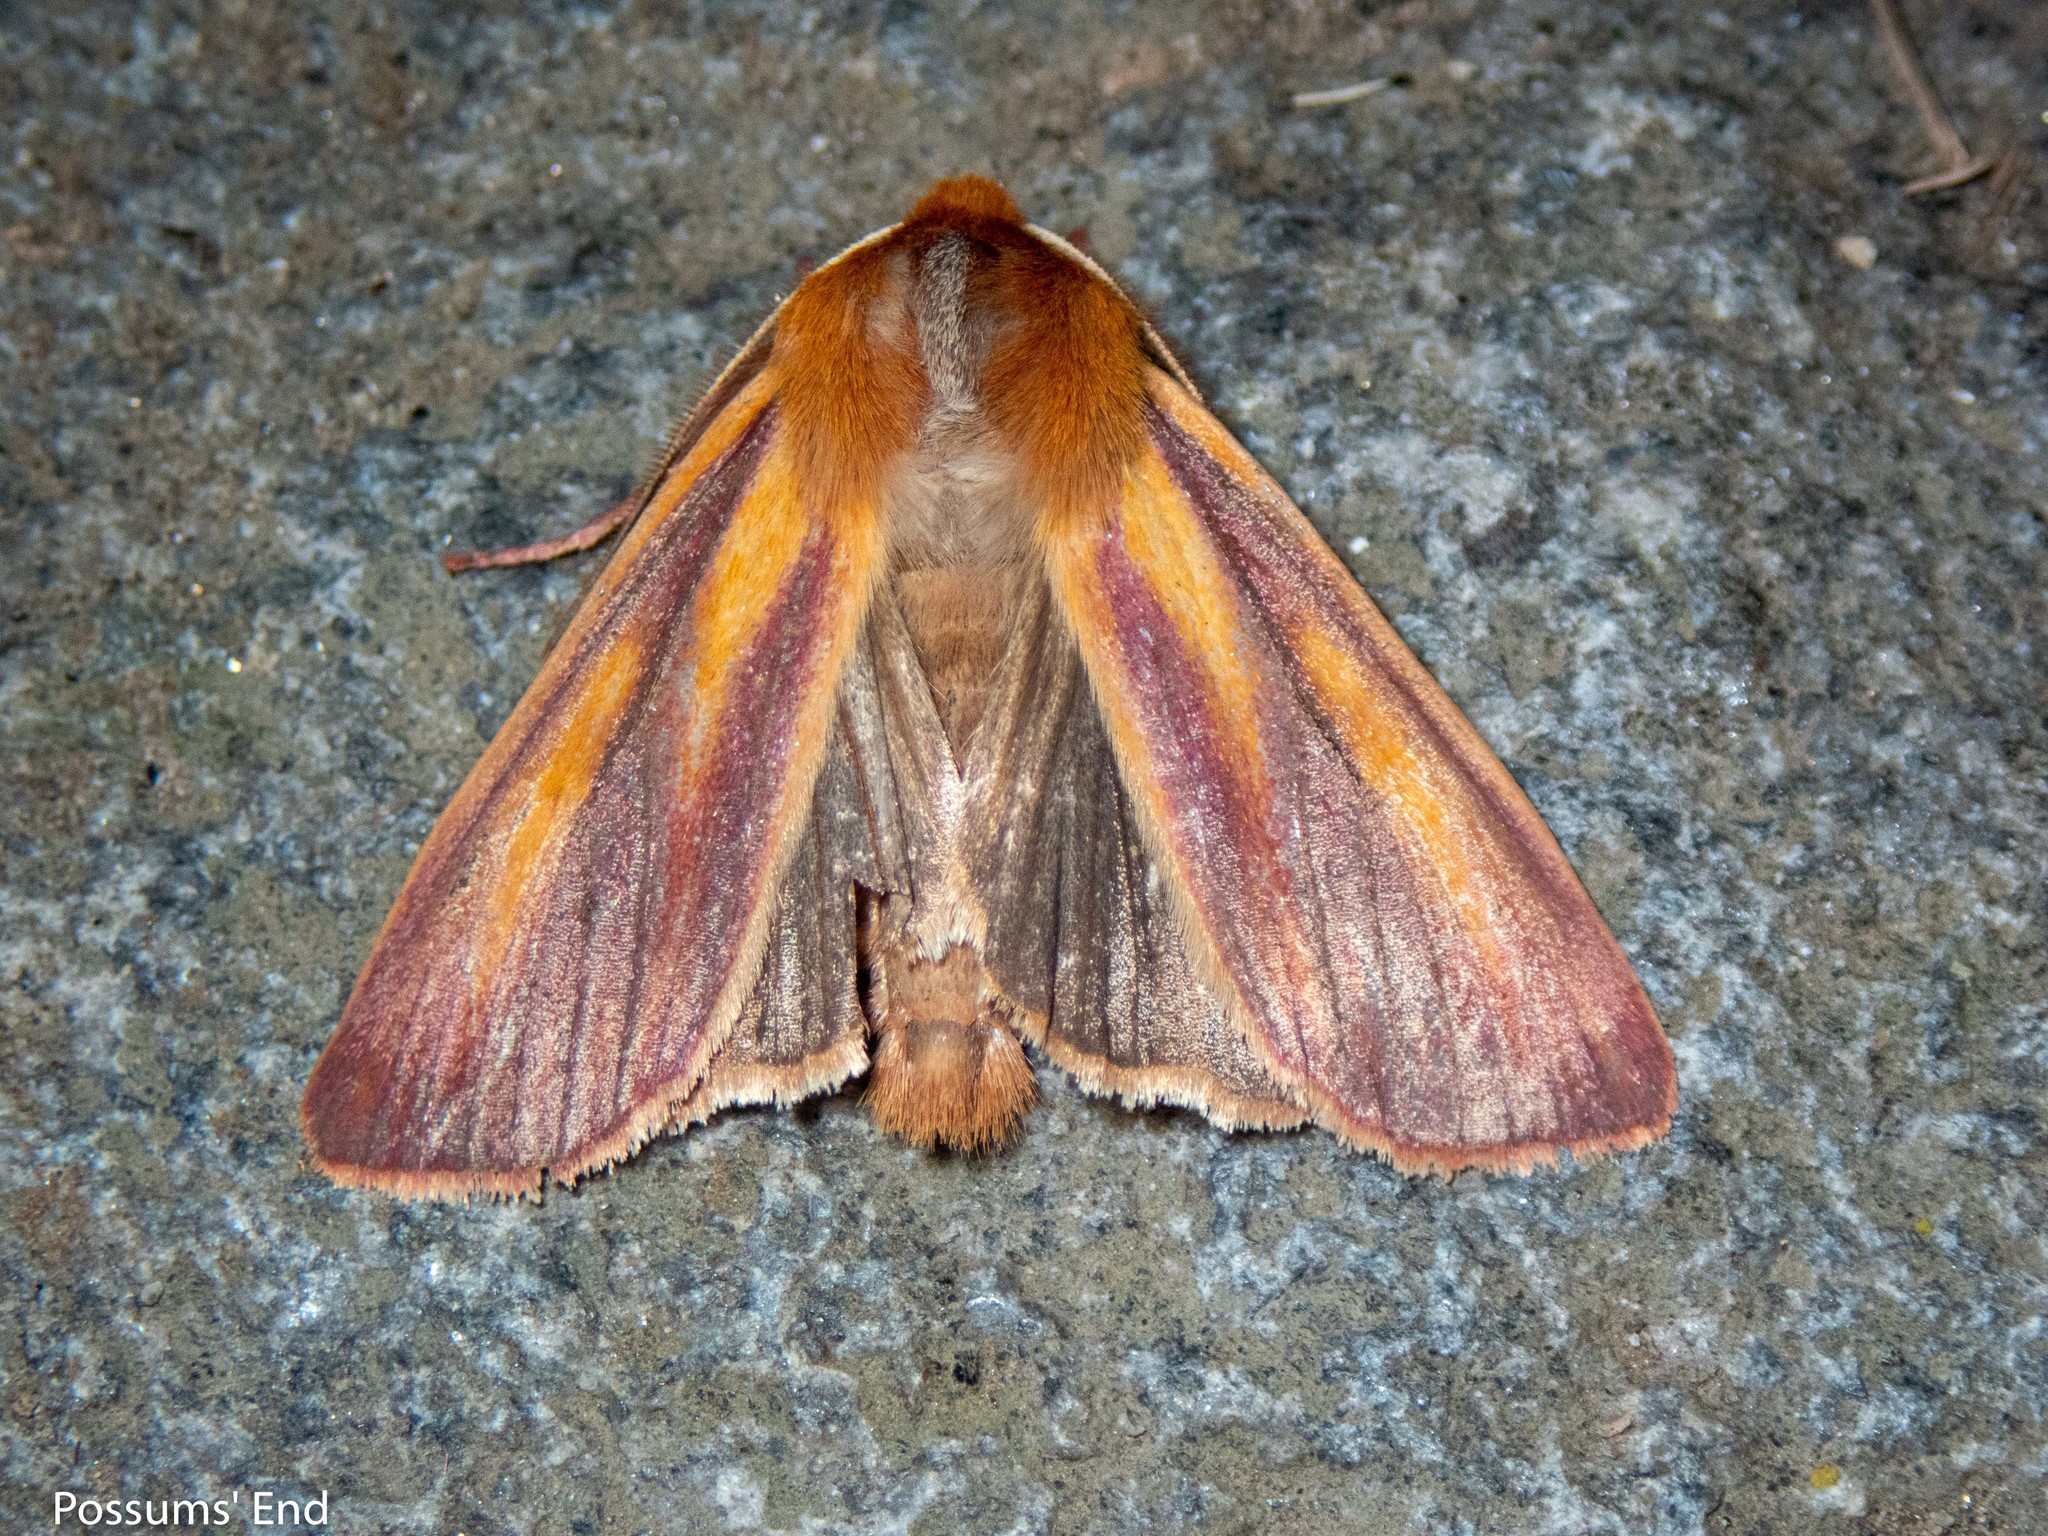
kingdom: Animalia
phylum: Arthropoda
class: Insecta
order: Lepidoptera
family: Noctuidae
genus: Ichneutica
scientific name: Ichneutica
